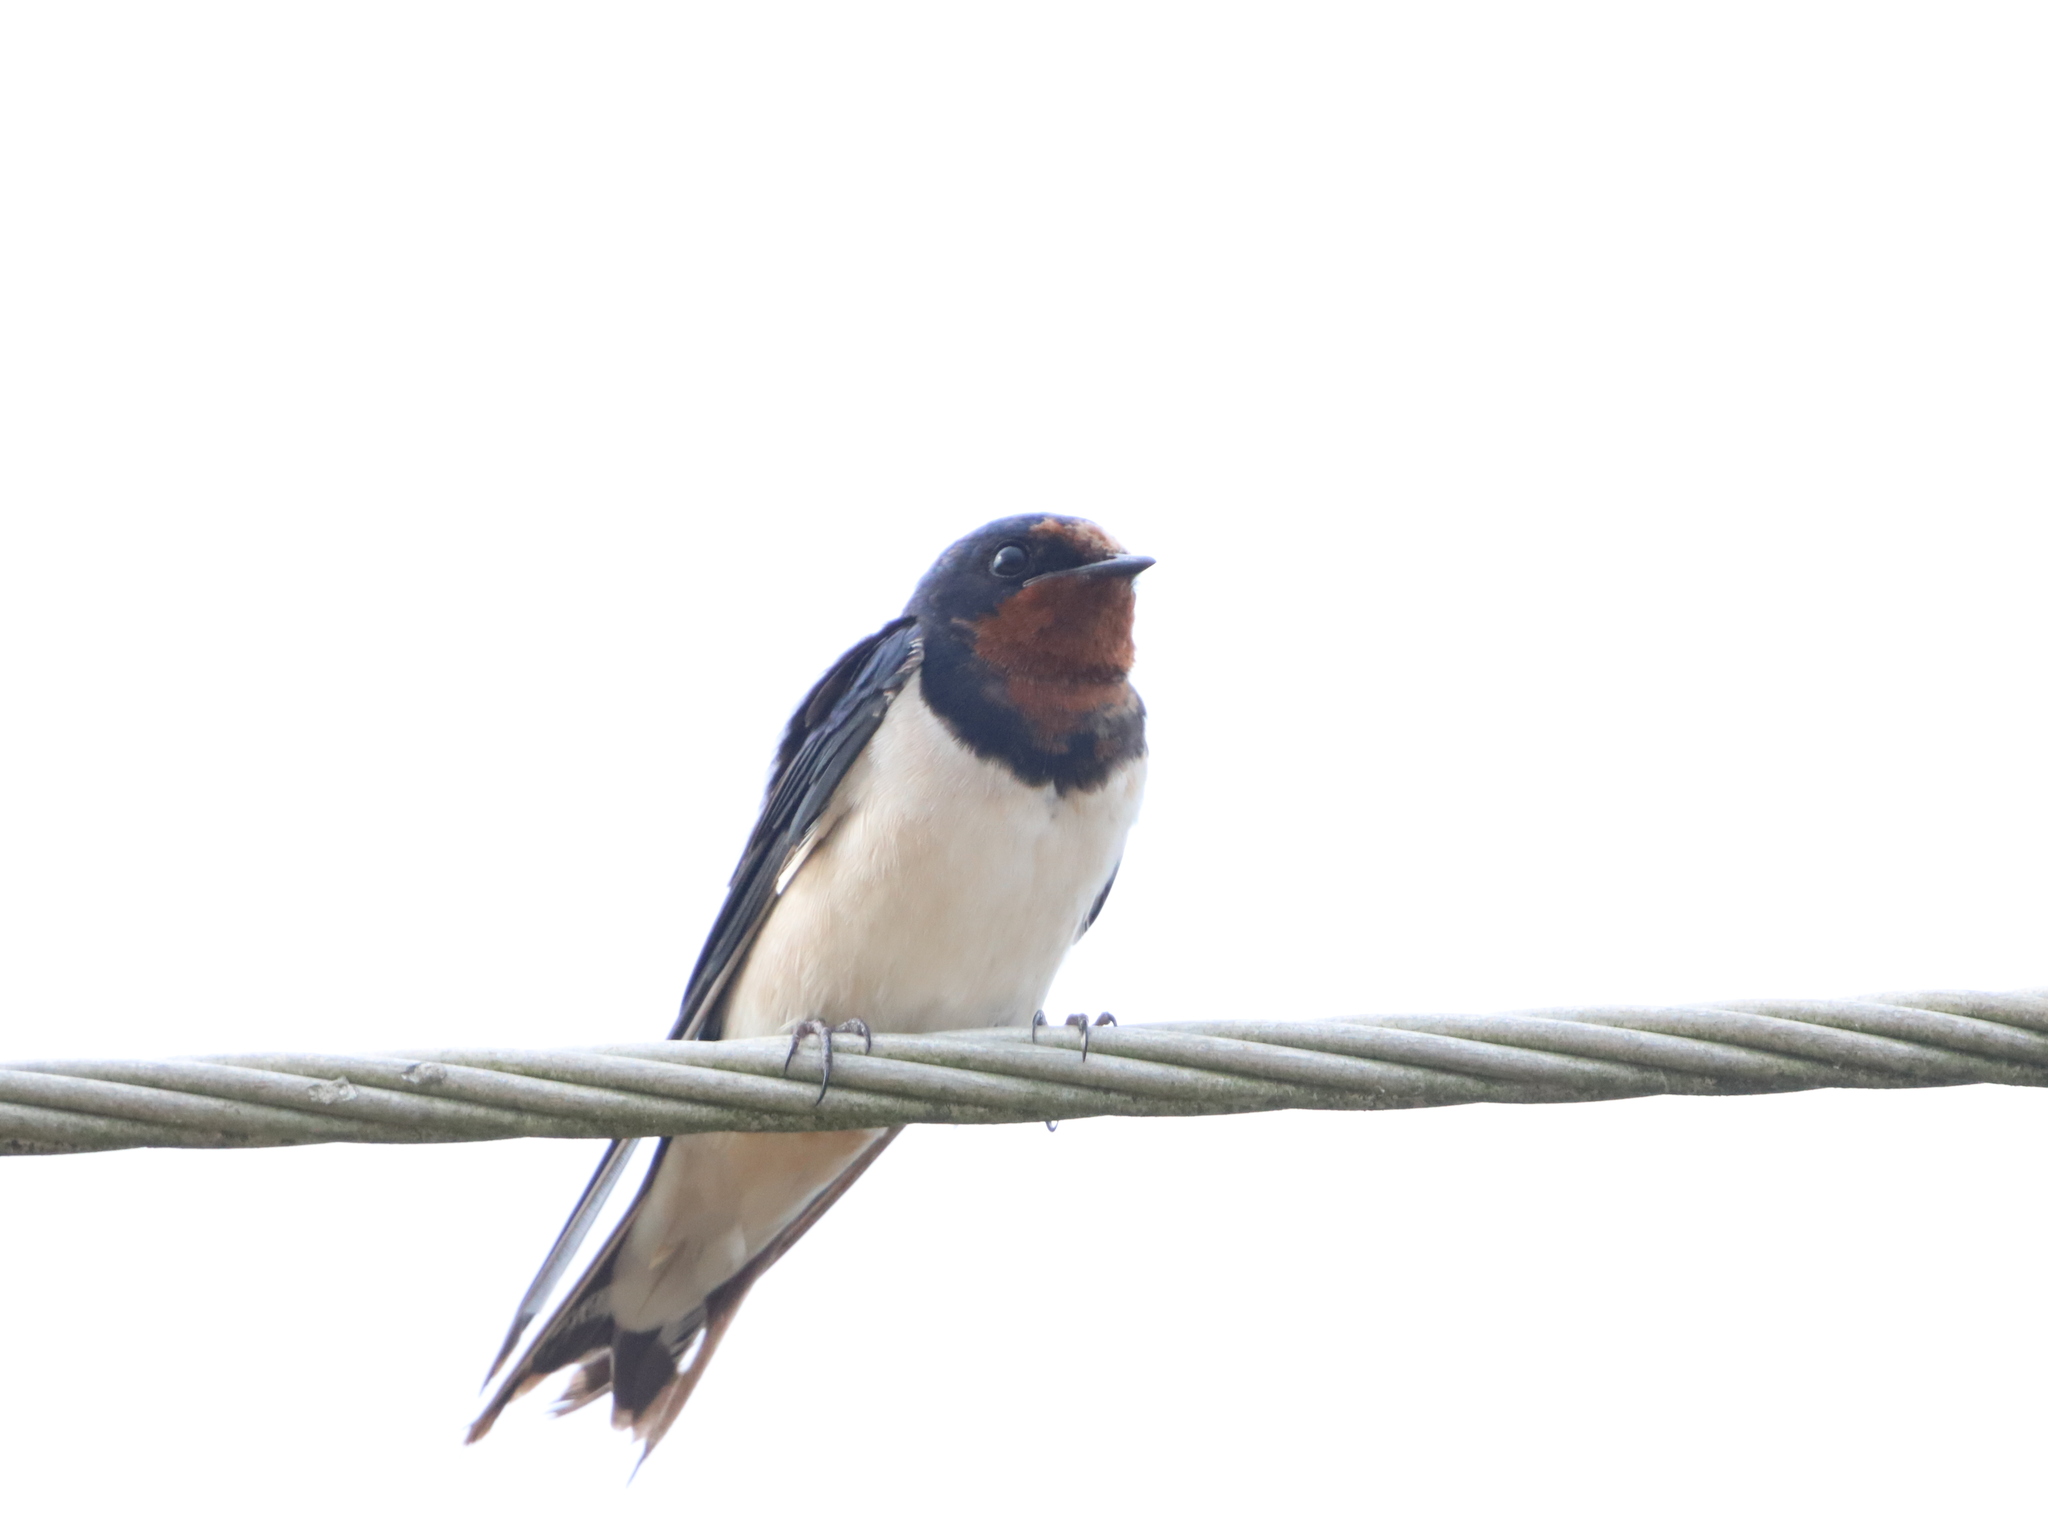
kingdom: Animalia
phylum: Chordata
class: Aves
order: Passeriformes
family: Hirundinidae
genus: Hirundo
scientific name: Hirundo rustica
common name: Barn swallow
